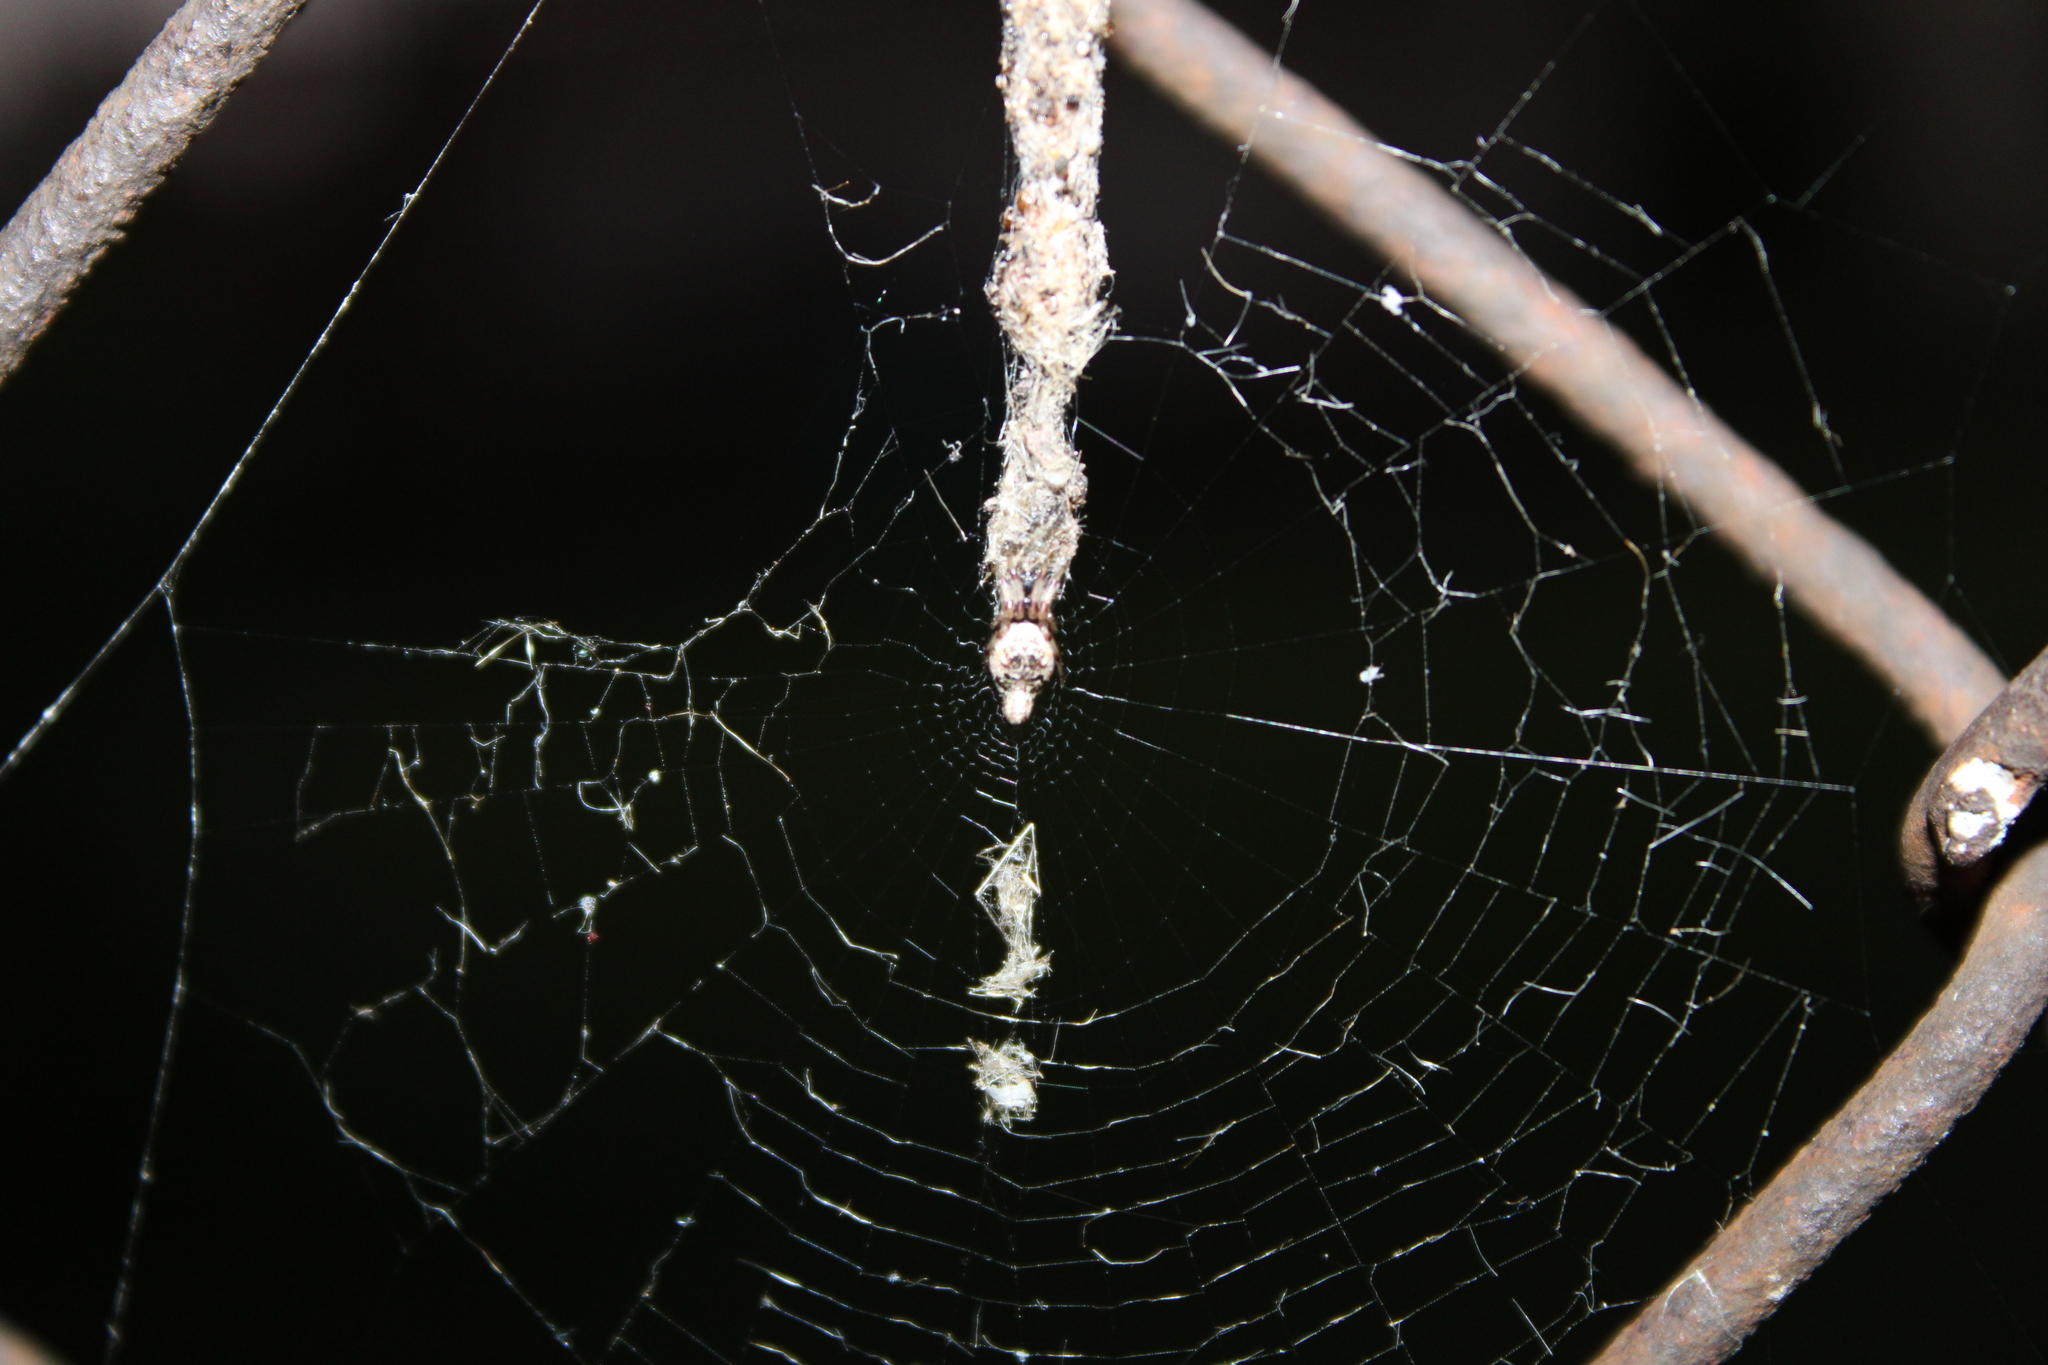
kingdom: Animalia
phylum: Arthropoda
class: Arachnida
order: Araneae
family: Araneidae
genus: Cyclosa
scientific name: Cyclosa turbinata
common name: Orb weavers
